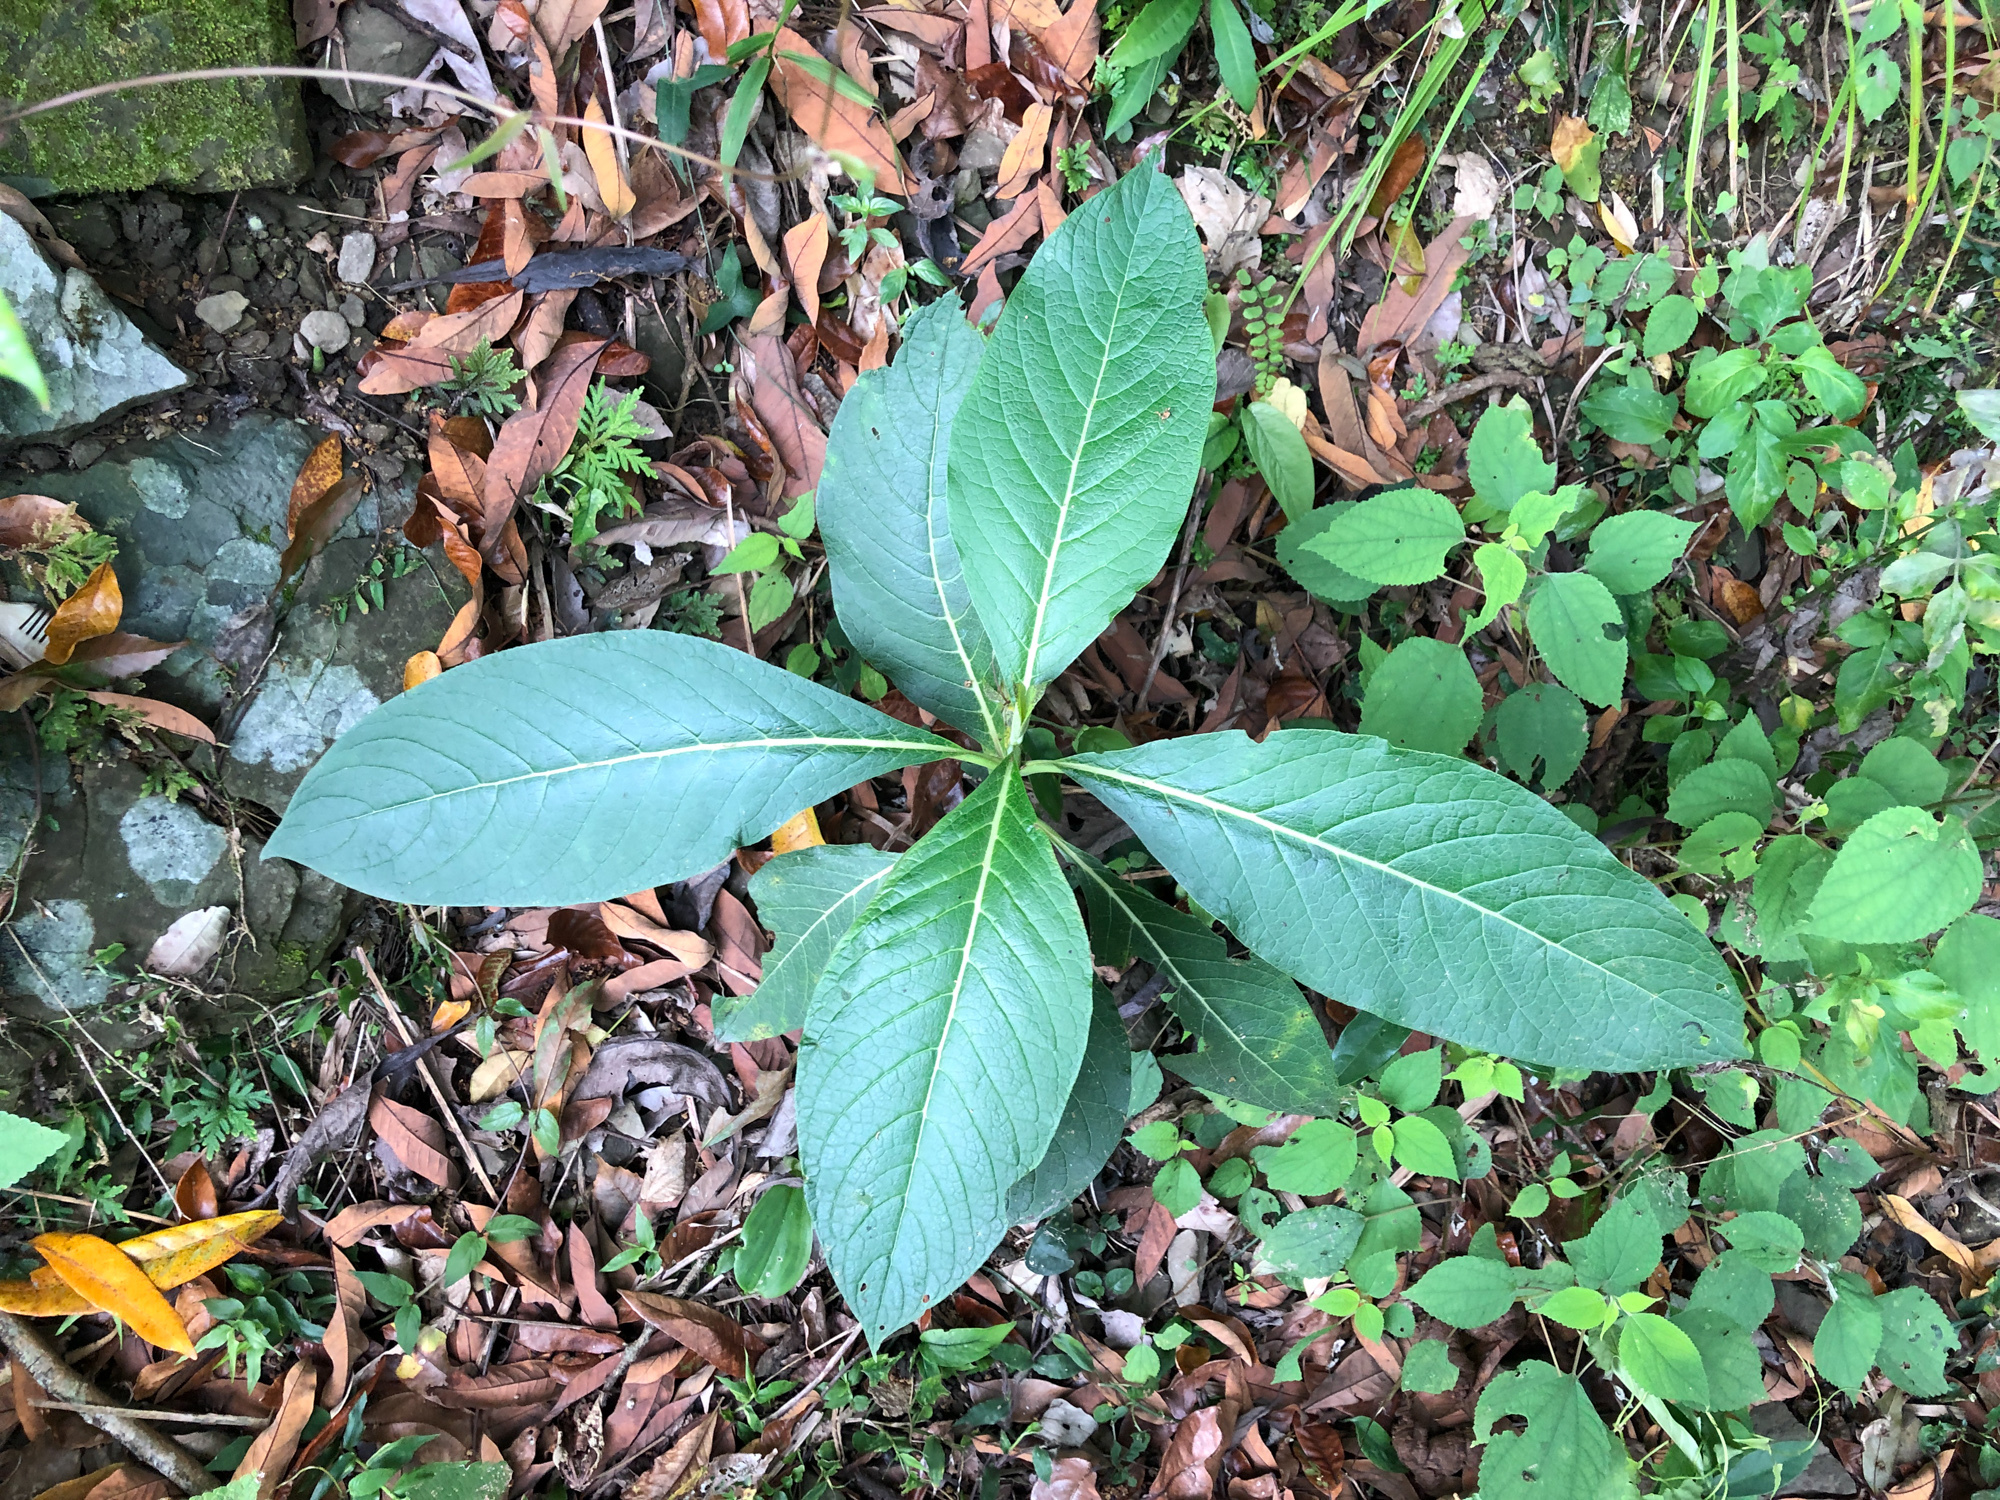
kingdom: Plantae
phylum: Tracheophyta
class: Magnoliopsida
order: Boraginales
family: Boraginaceae
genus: Trichodesma
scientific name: Trichodesma calycosum
